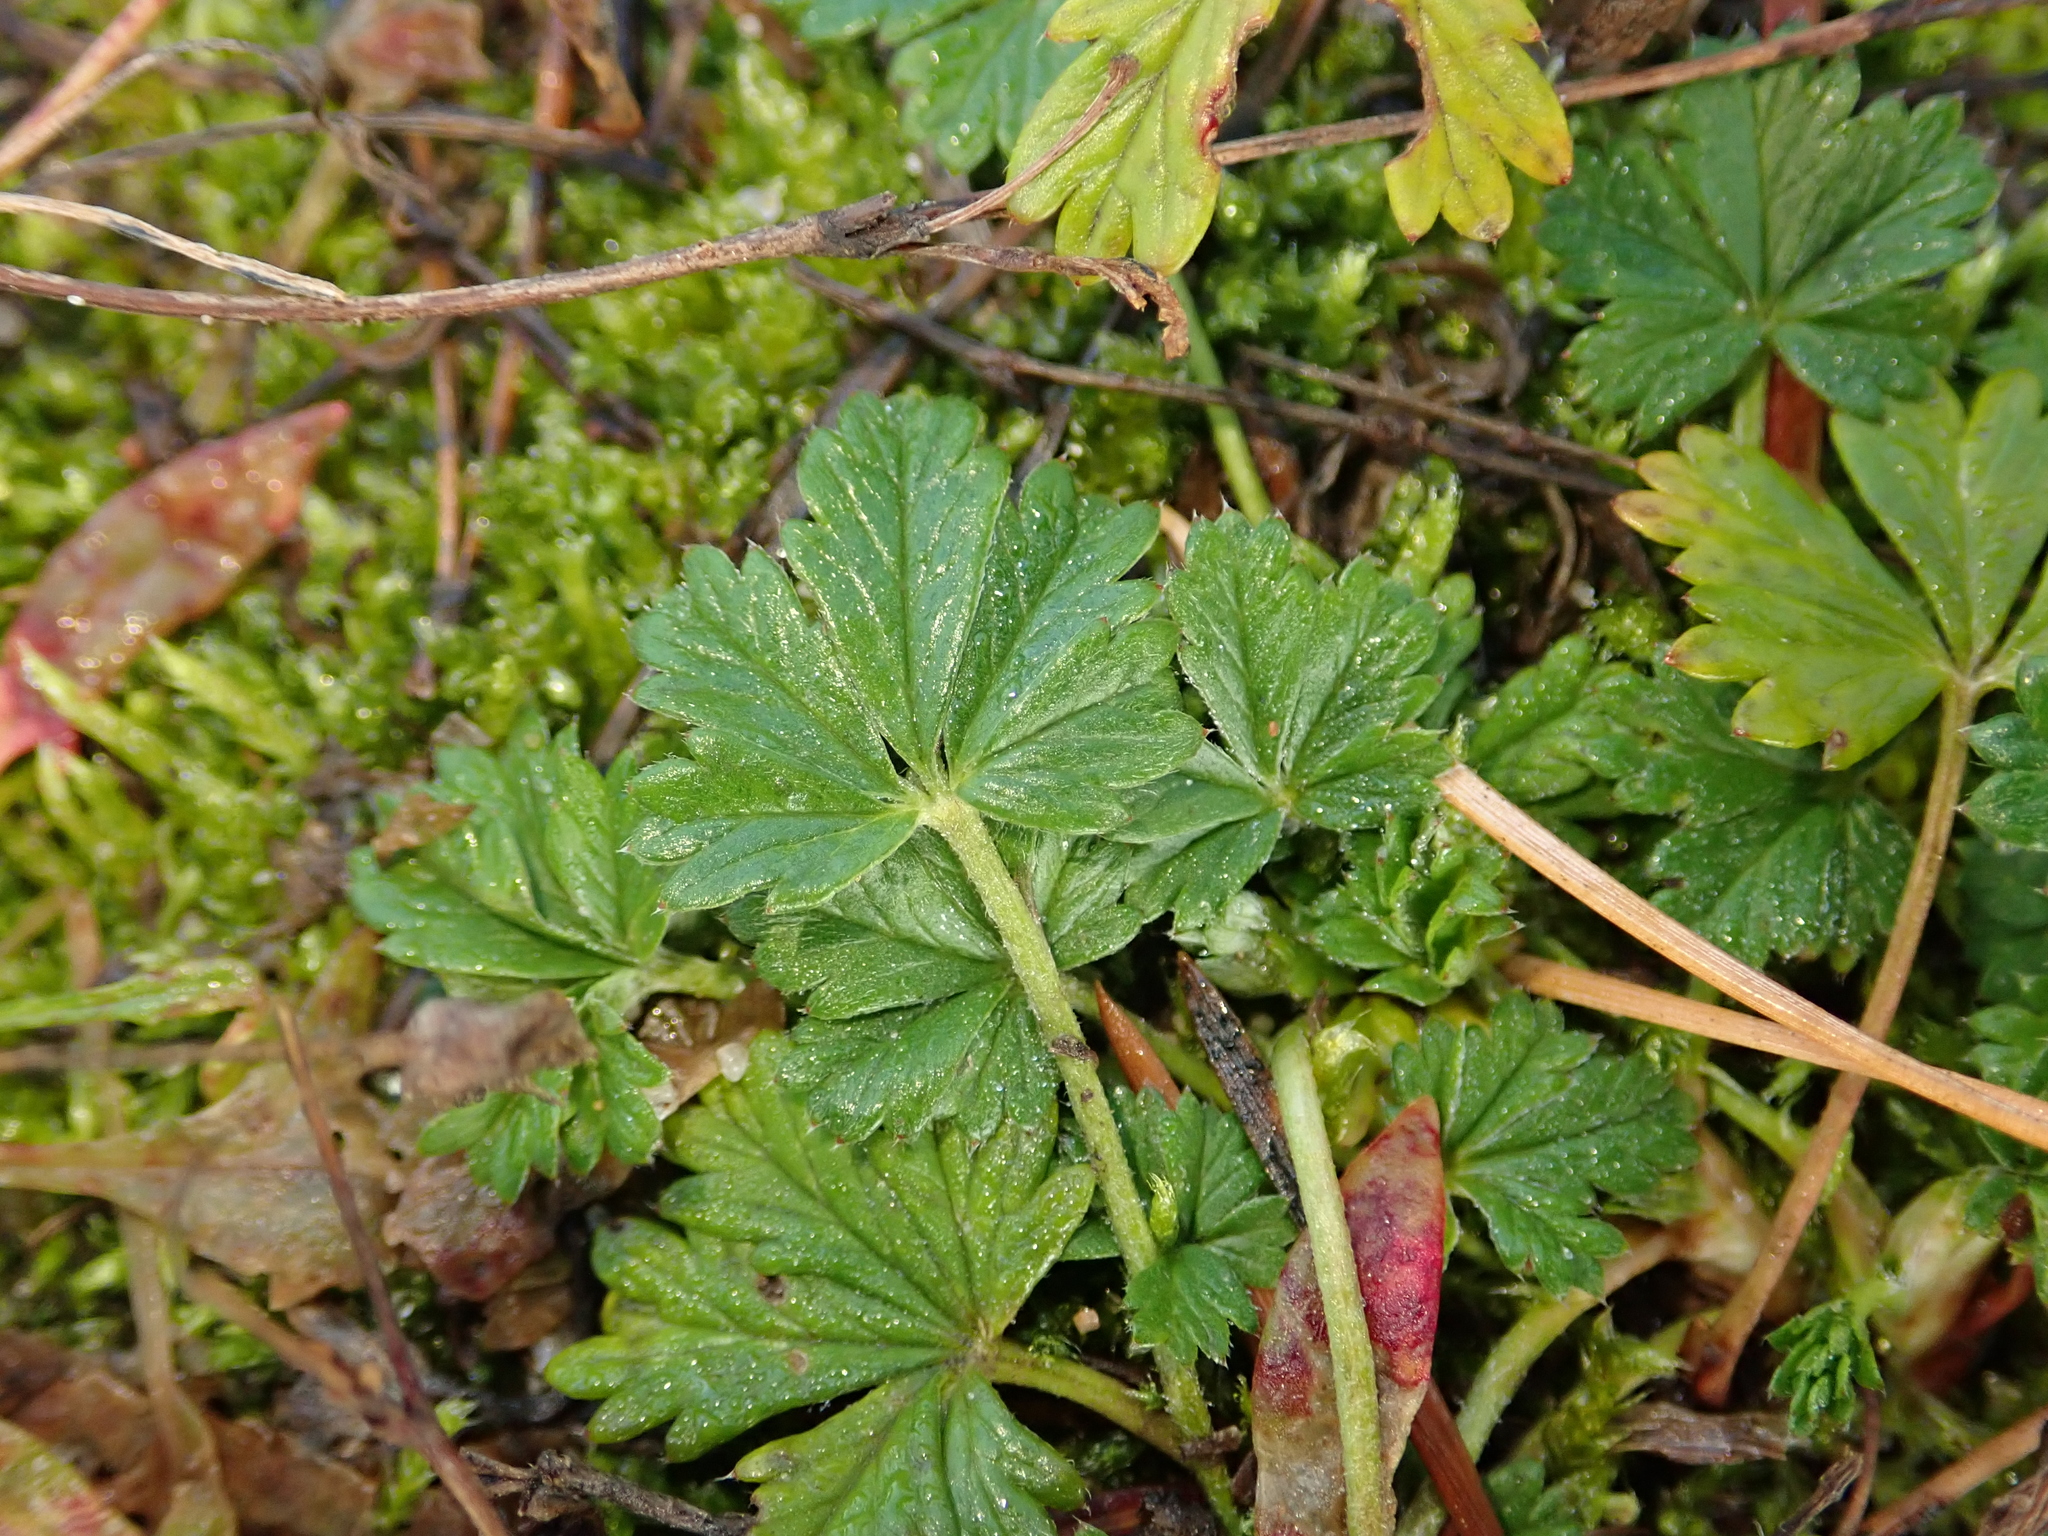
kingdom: Plantae
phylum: Tracheophyta
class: Magnoliopsida
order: Rosales
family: Rosaceae
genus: Potentilla
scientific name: Potentilla argentea
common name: Hoary cinquefoil
